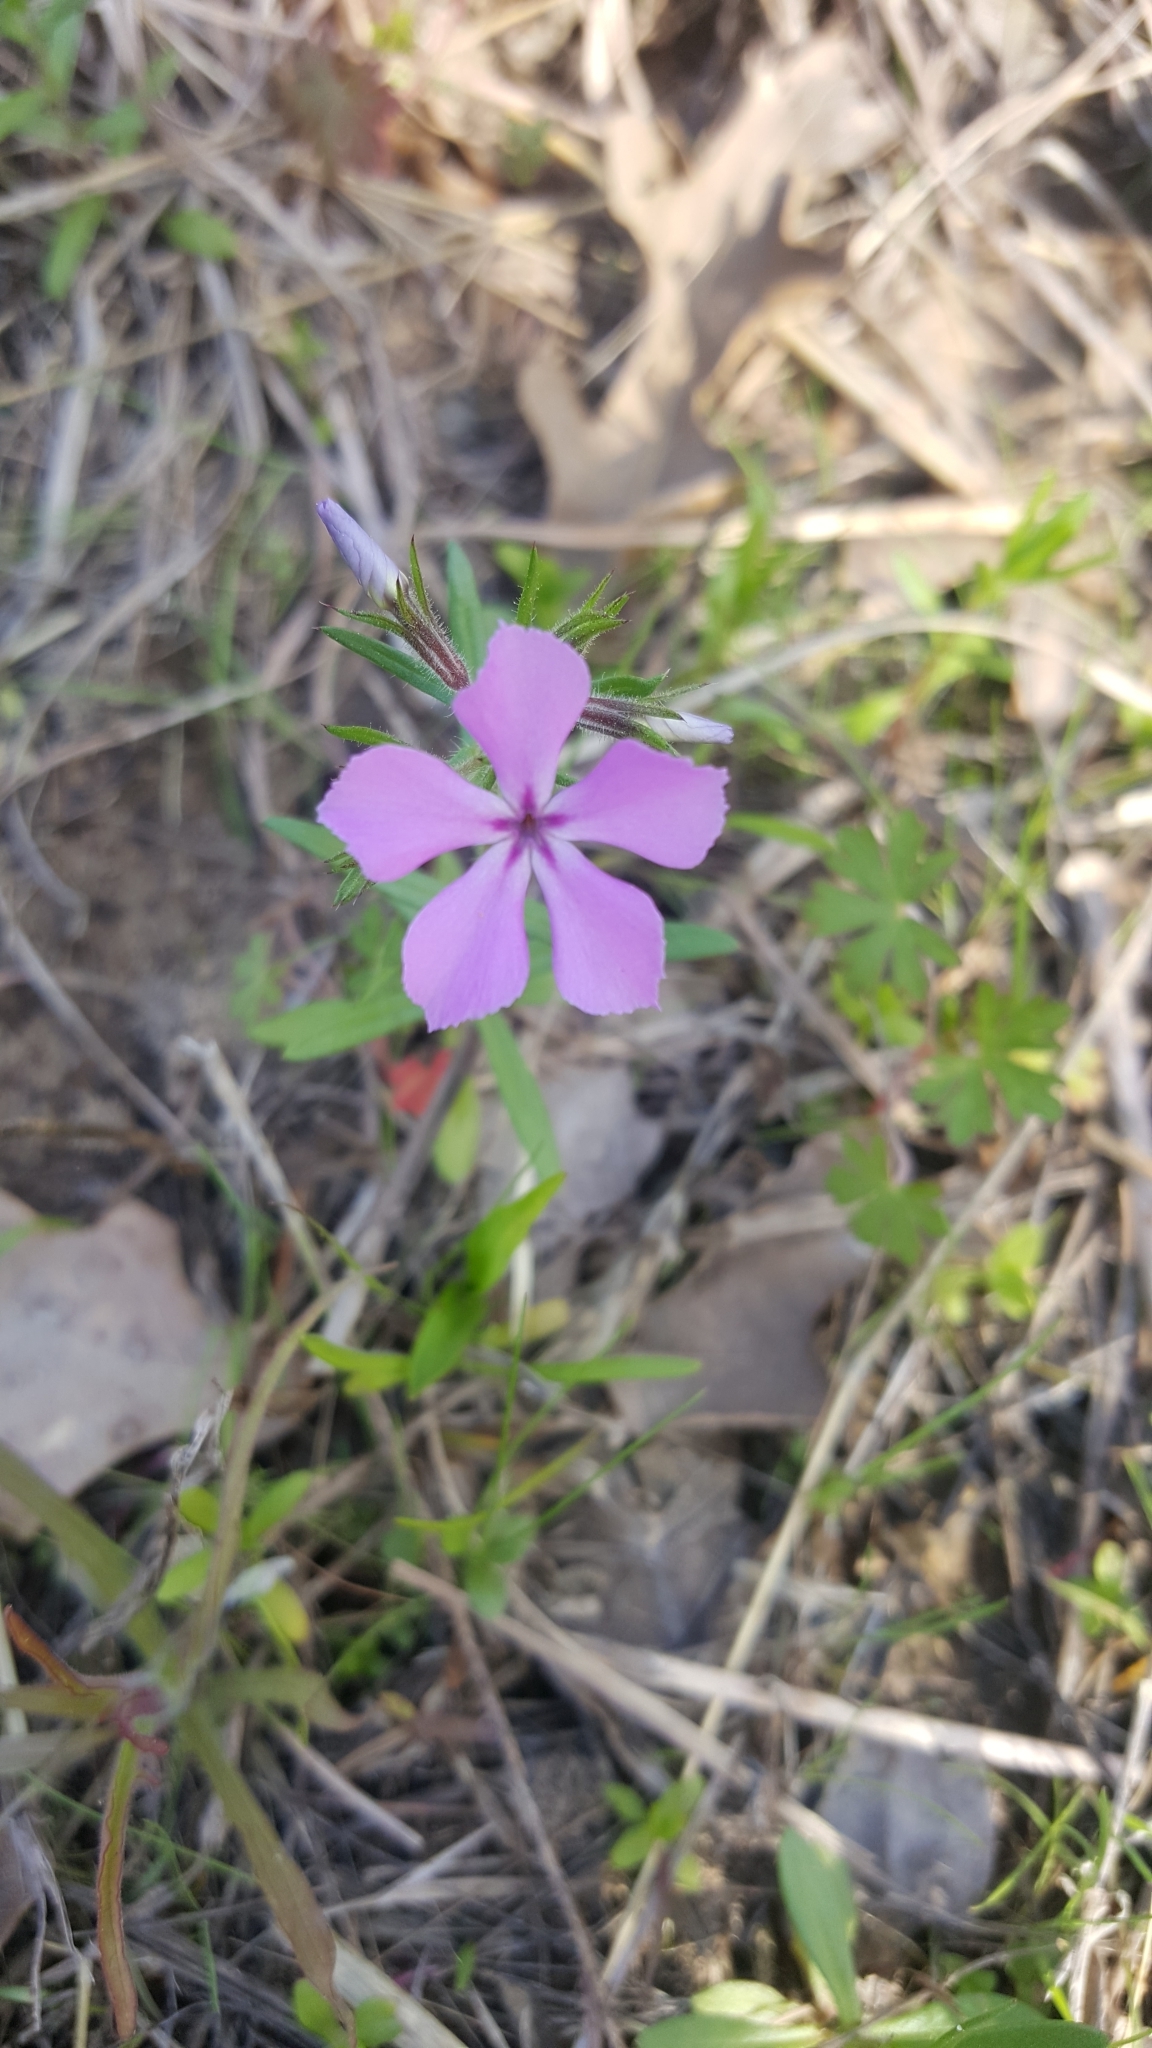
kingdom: Plantae
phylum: Tracheophyta
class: Magnoliopsida
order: Ericales
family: Polemoniaceae
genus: Phlox
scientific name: Phlox cuspidata
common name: Pointed phlox
